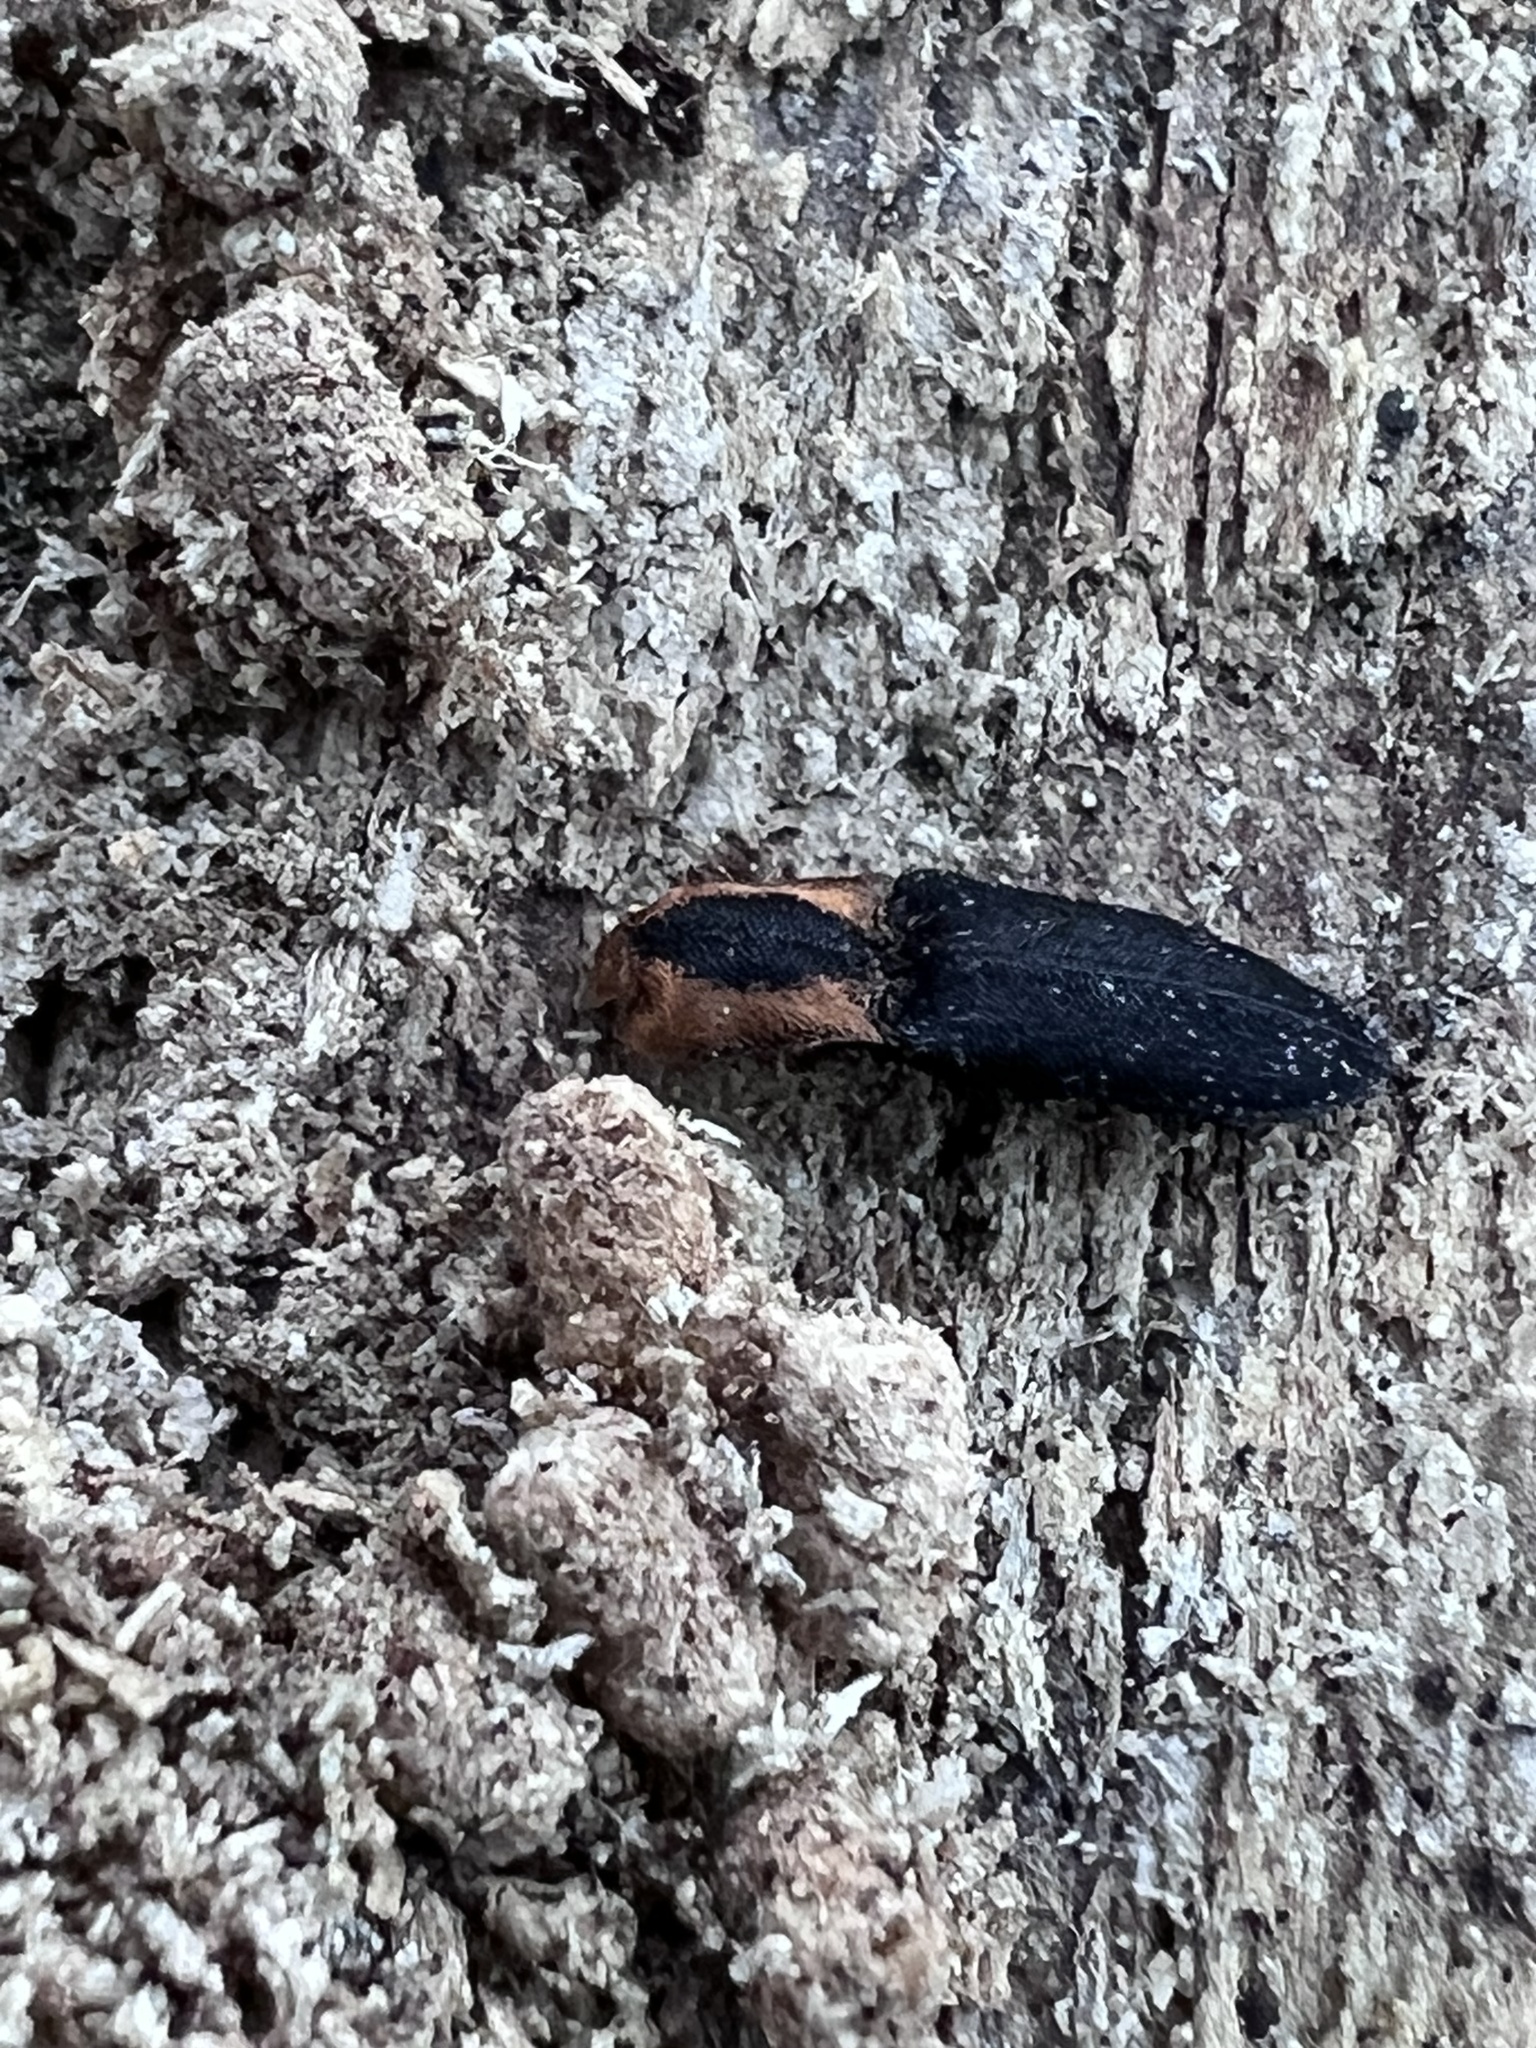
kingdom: Animalia
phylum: Arthropoda
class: Insecta
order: Coleoptera
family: Elateridae
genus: Lacon
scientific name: Lacon discoideus
